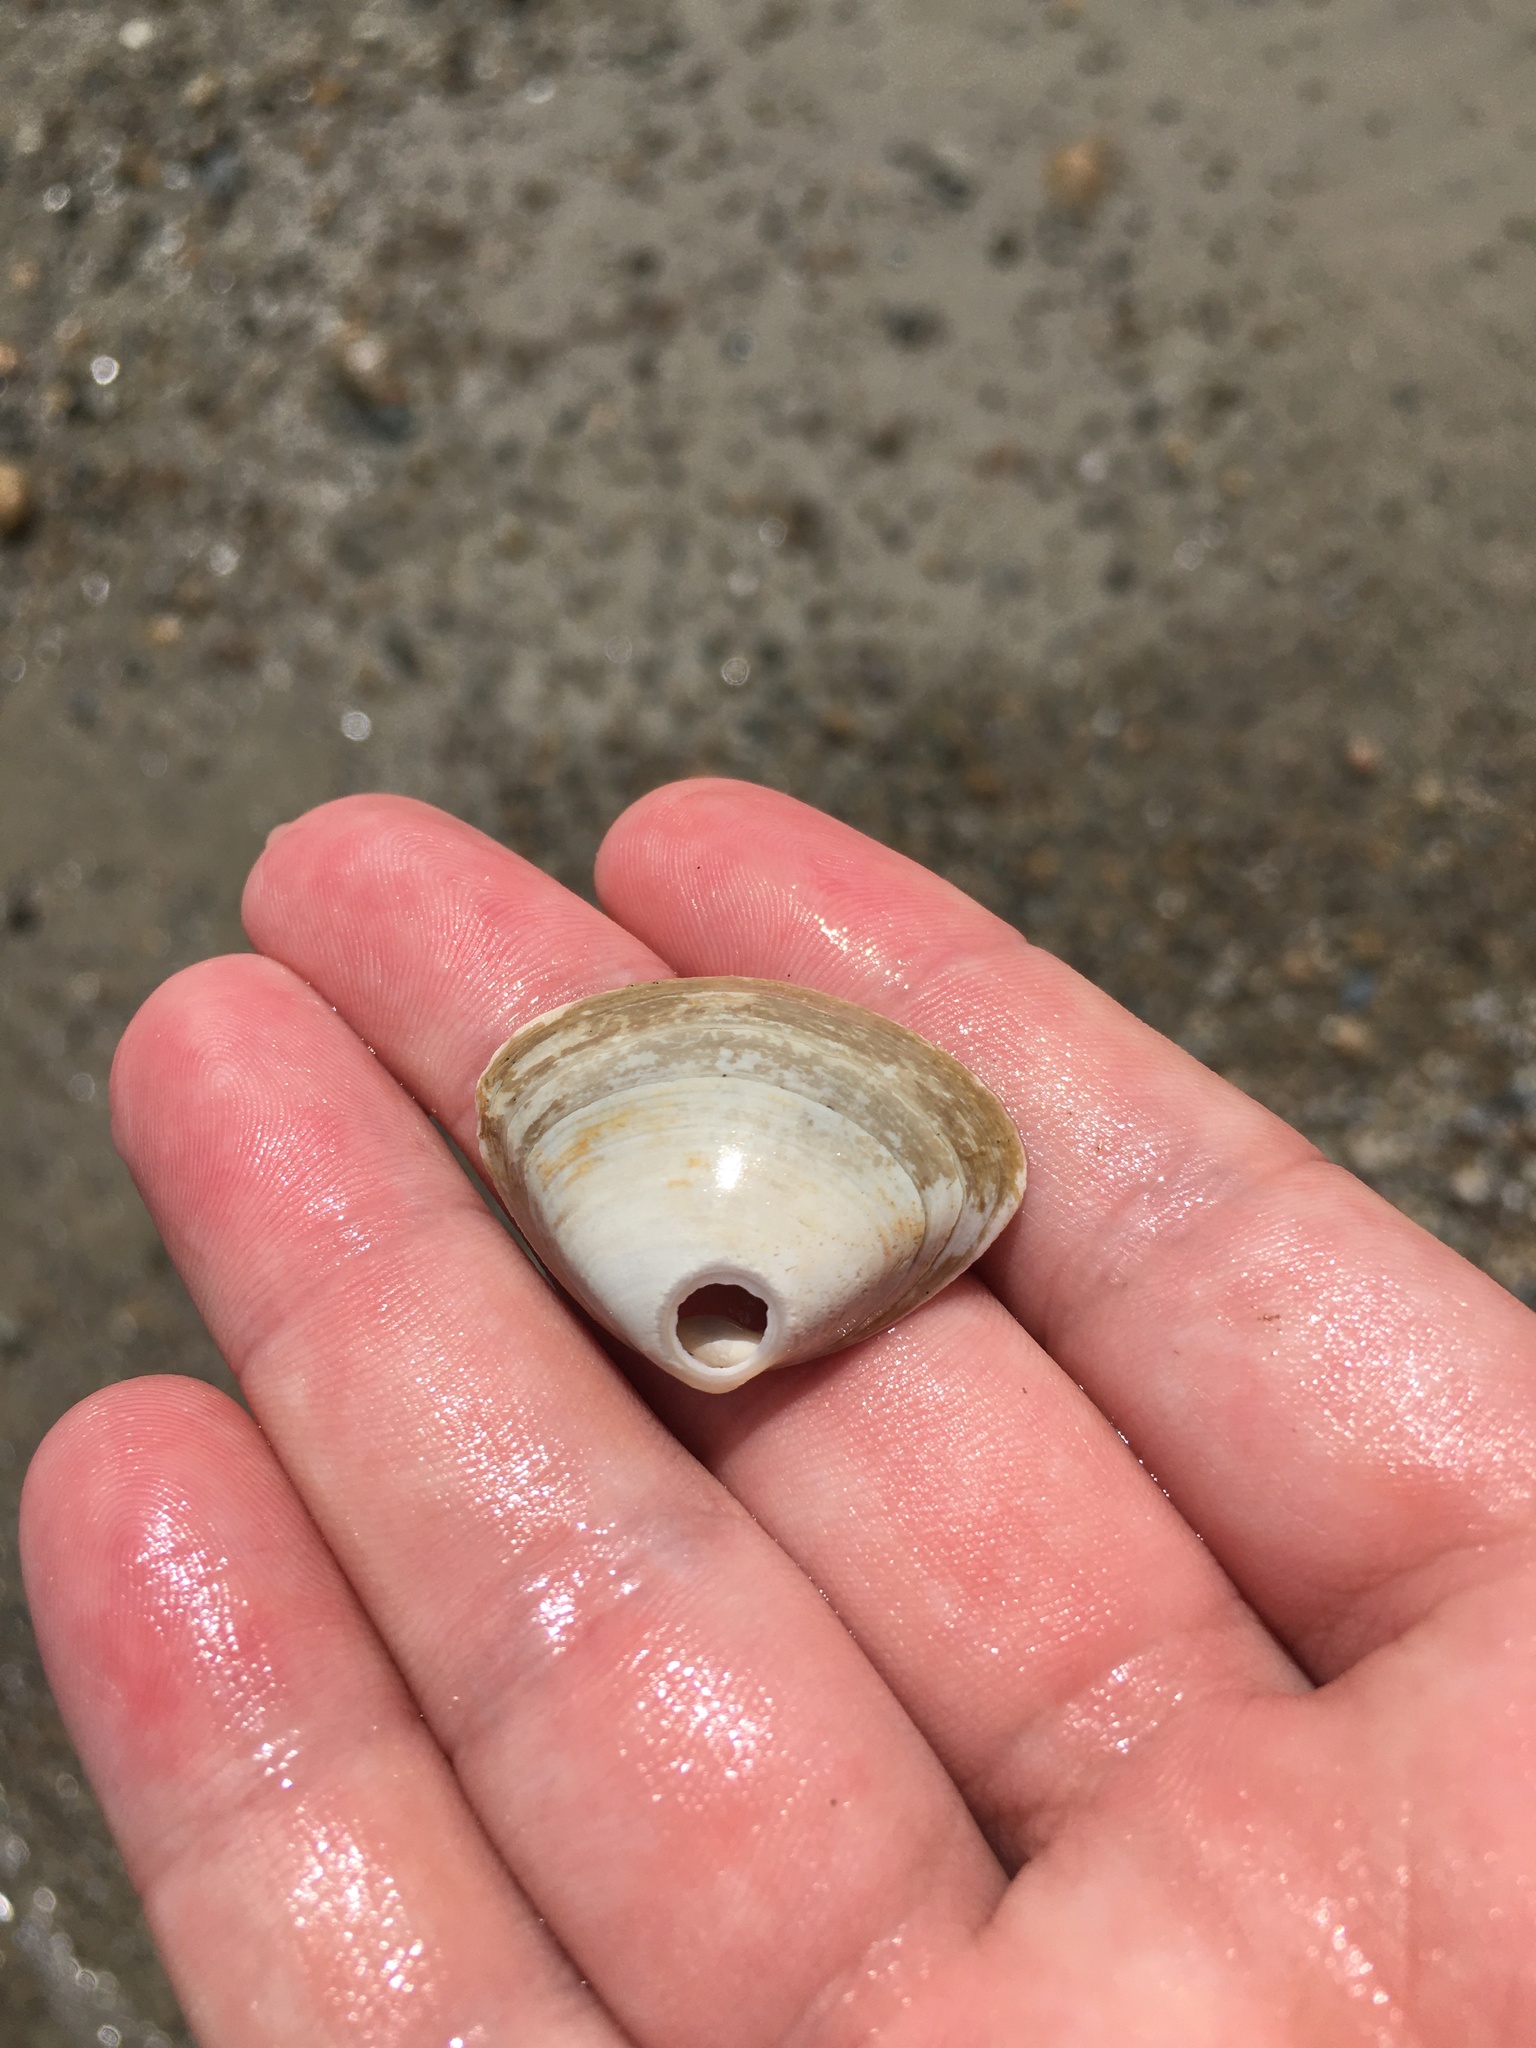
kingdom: Animalia
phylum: Mollusca
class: Bivalvia
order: Venerida
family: Mactridae
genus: Spisula
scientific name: Spisula solidissima
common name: Atlantic surf clam
